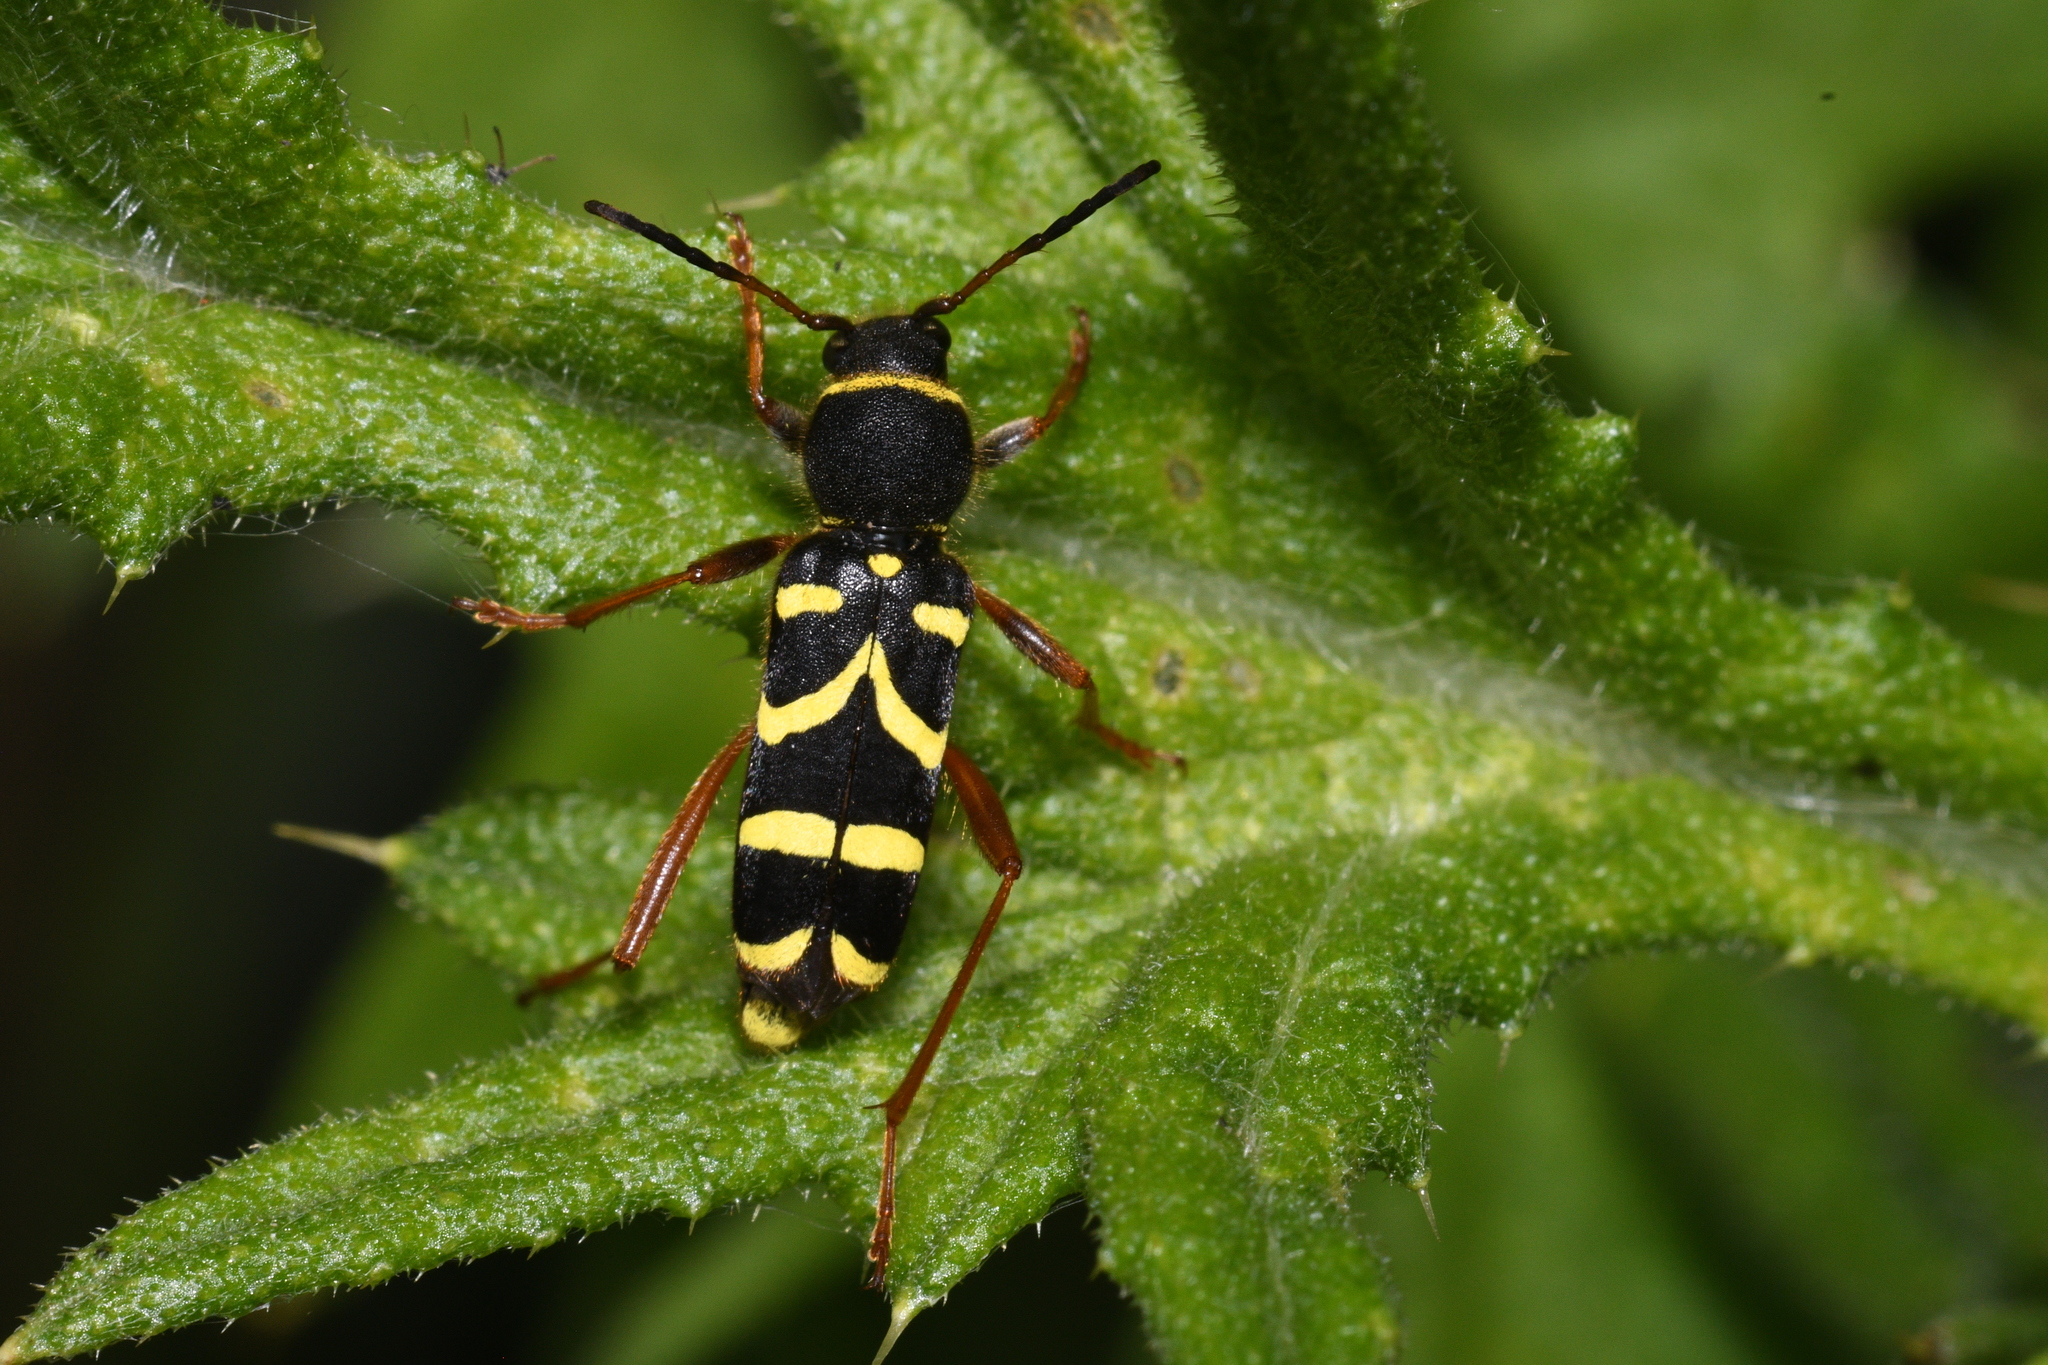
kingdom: Animalia
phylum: Arthropoda
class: Insecta
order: Coleoptera
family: Cerambycidae
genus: Clytus
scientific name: Clytus arietis
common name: Wasp beetle
